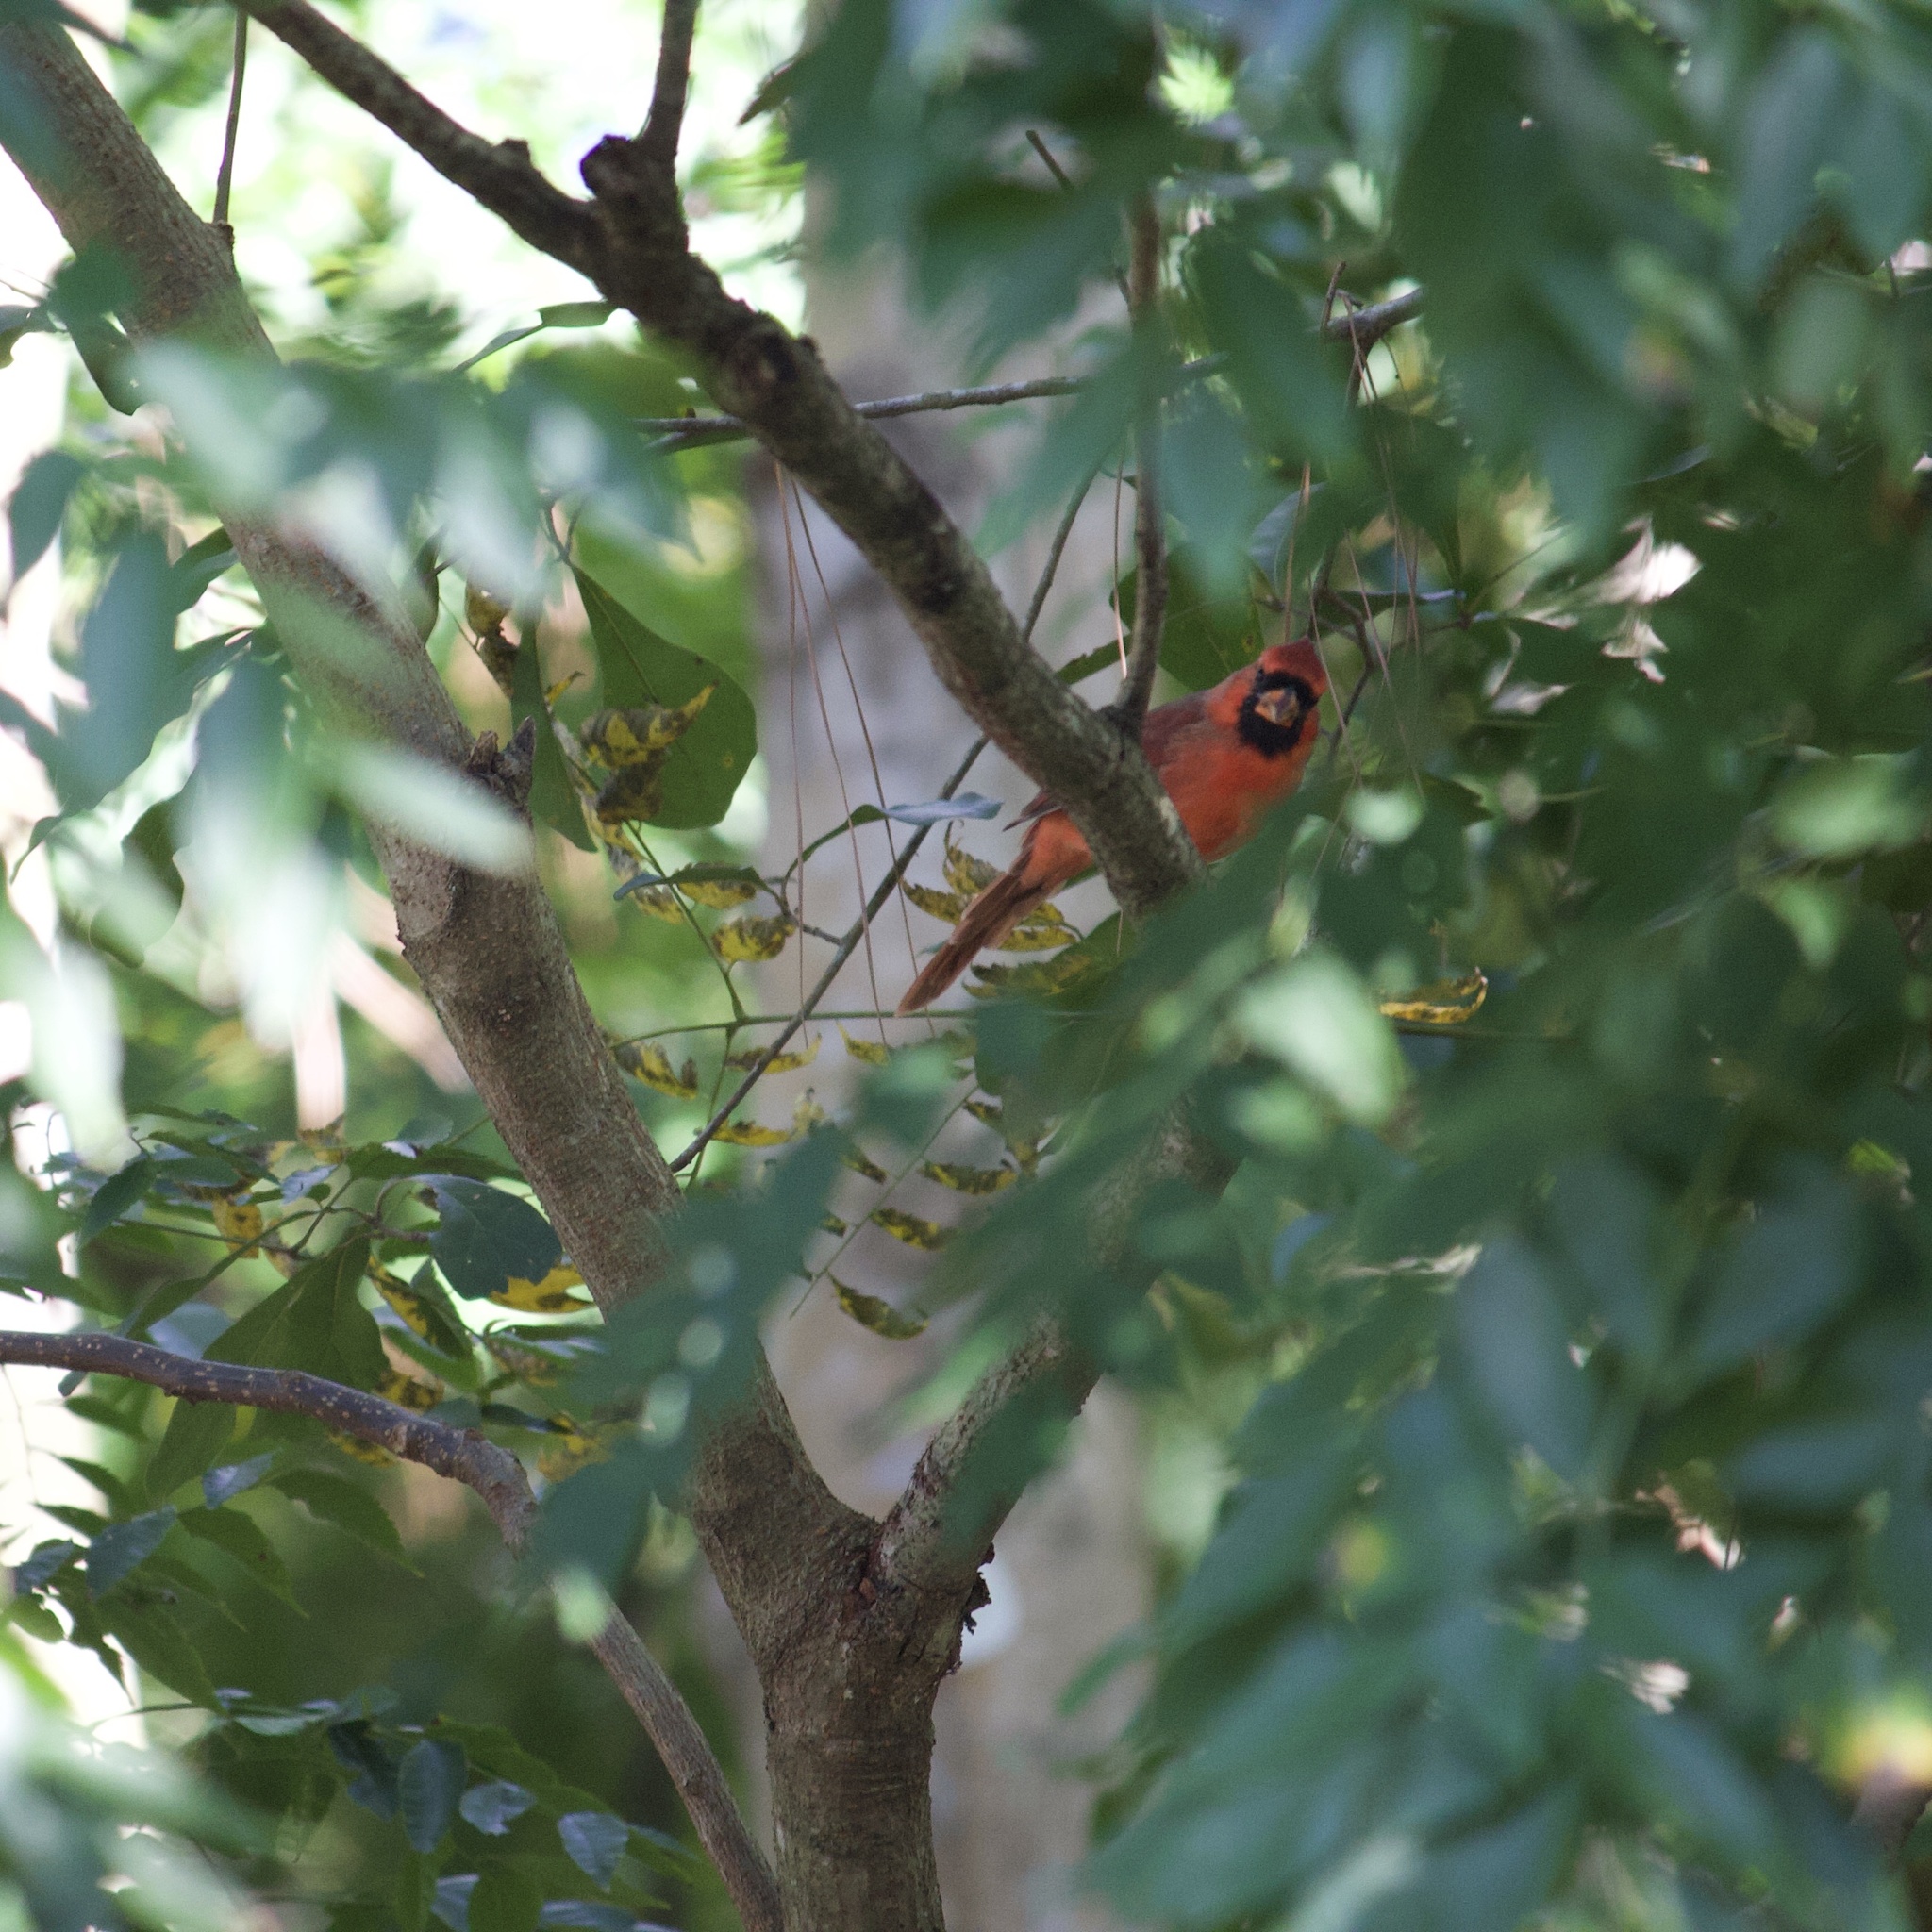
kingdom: Animalia
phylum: Chordata
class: Aves
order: Passeriformes
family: Cardinalidae
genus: Cardinalis
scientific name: Cardinalis cardinalis
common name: Northern cardinal
